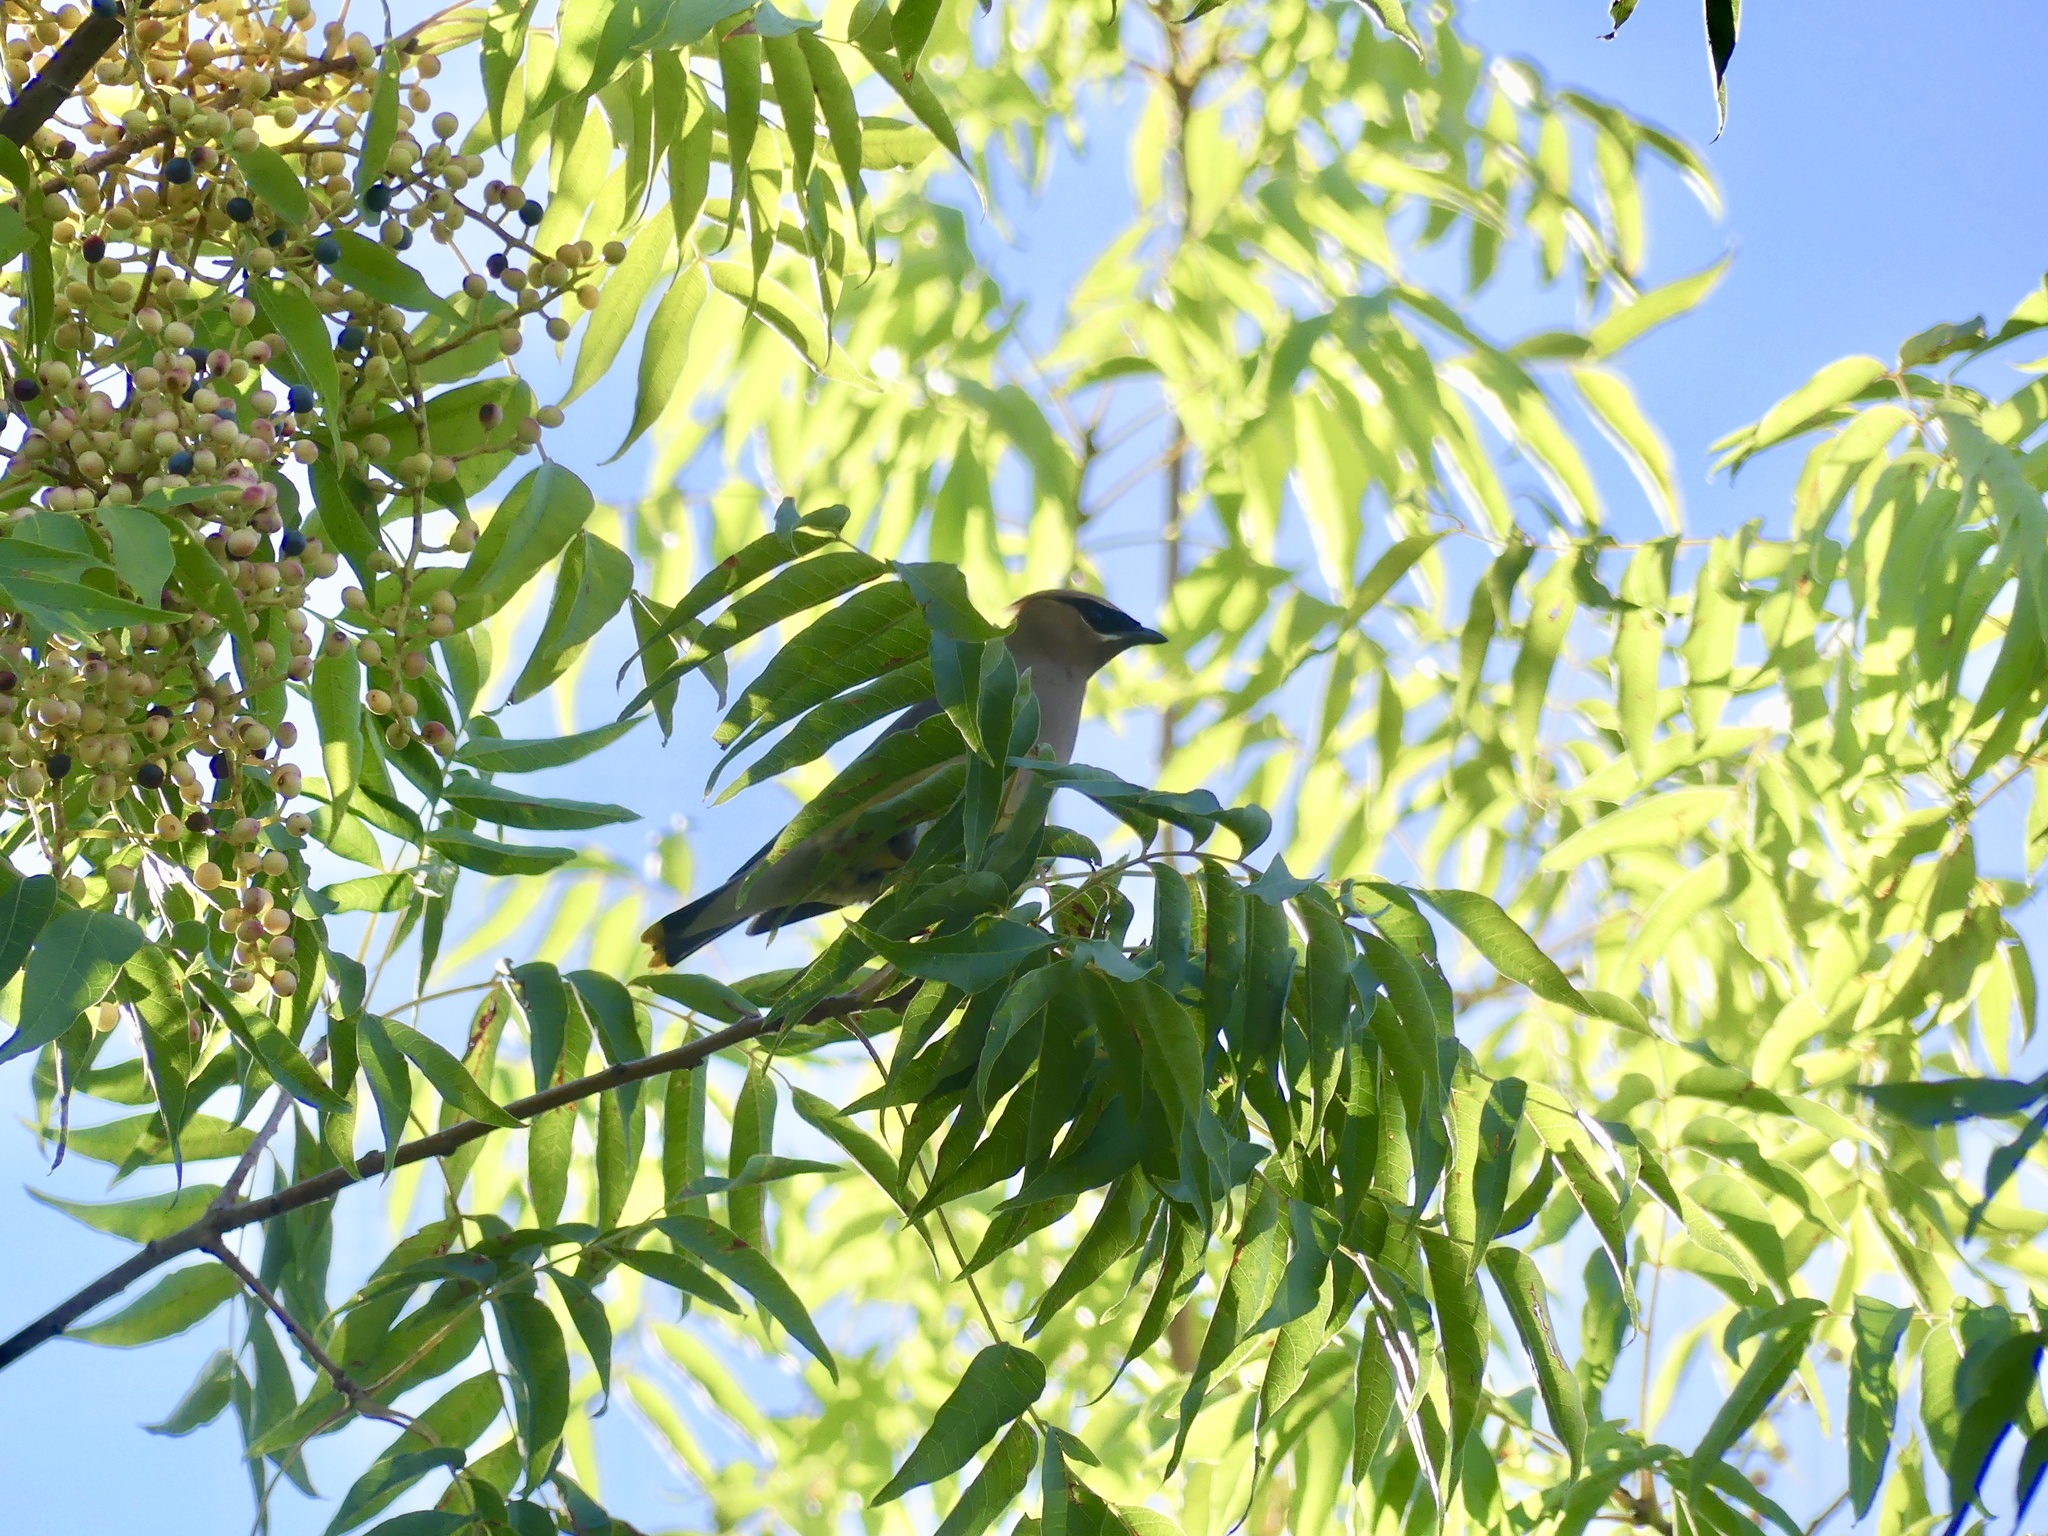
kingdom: Animalia
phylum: Chordata
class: Aves
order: Passeriformes
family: Bombycillidae
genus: Bombycilla
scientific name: Bombycilla cedrorum
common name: Cedar waxwing
